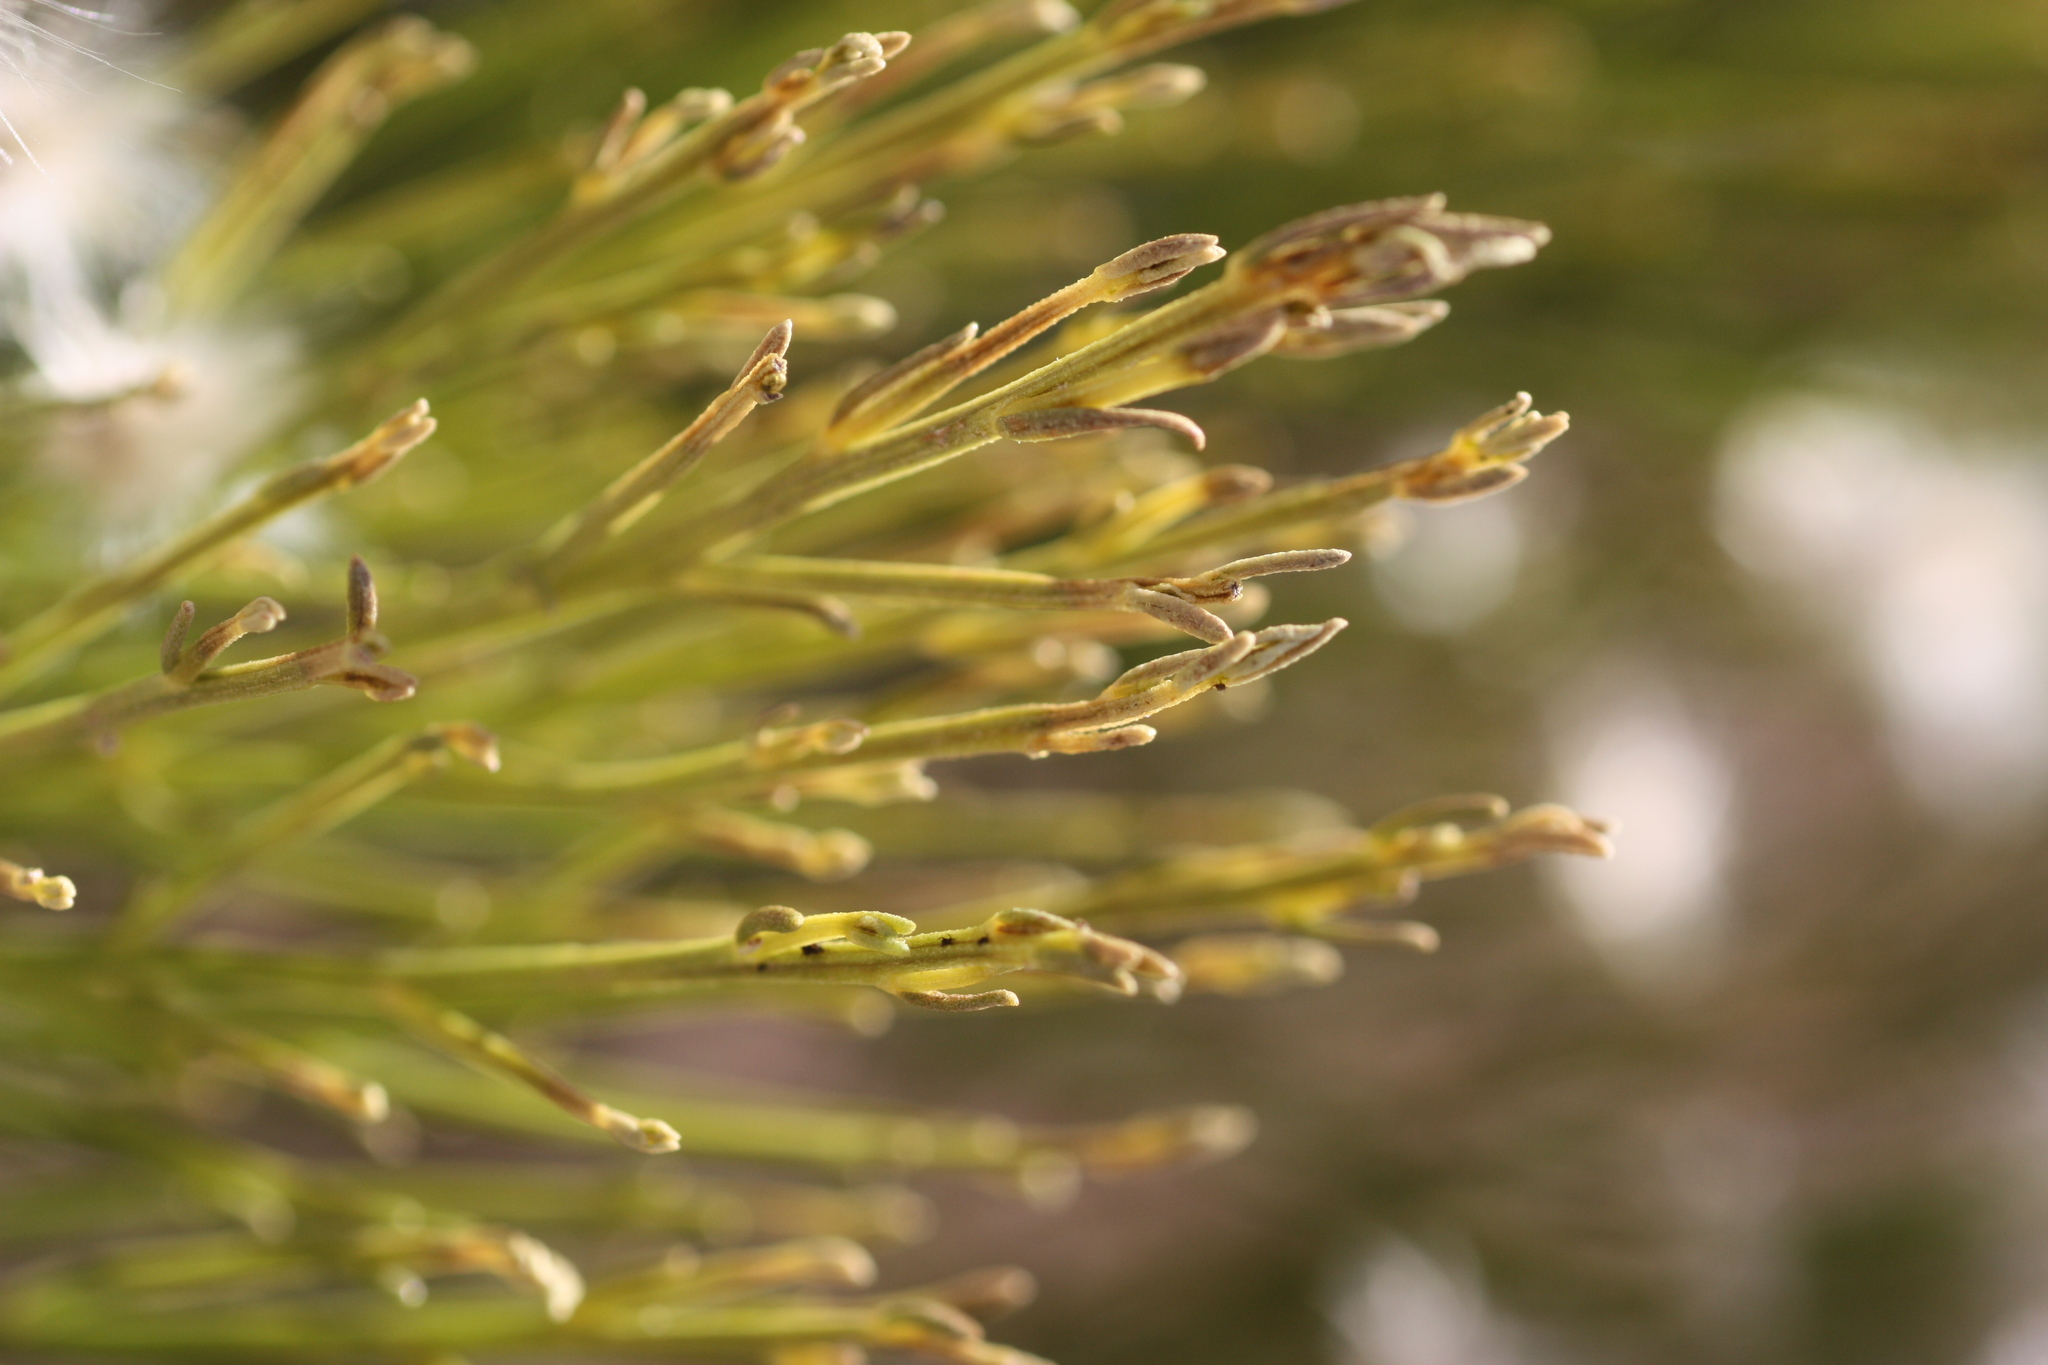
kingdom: Plantae
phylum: Tracheophyta
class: Magnoliopsida
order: Asterales
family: Asteraceae
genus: Baccharis
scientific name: Baccharis sarothroides
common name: Desert-broom
